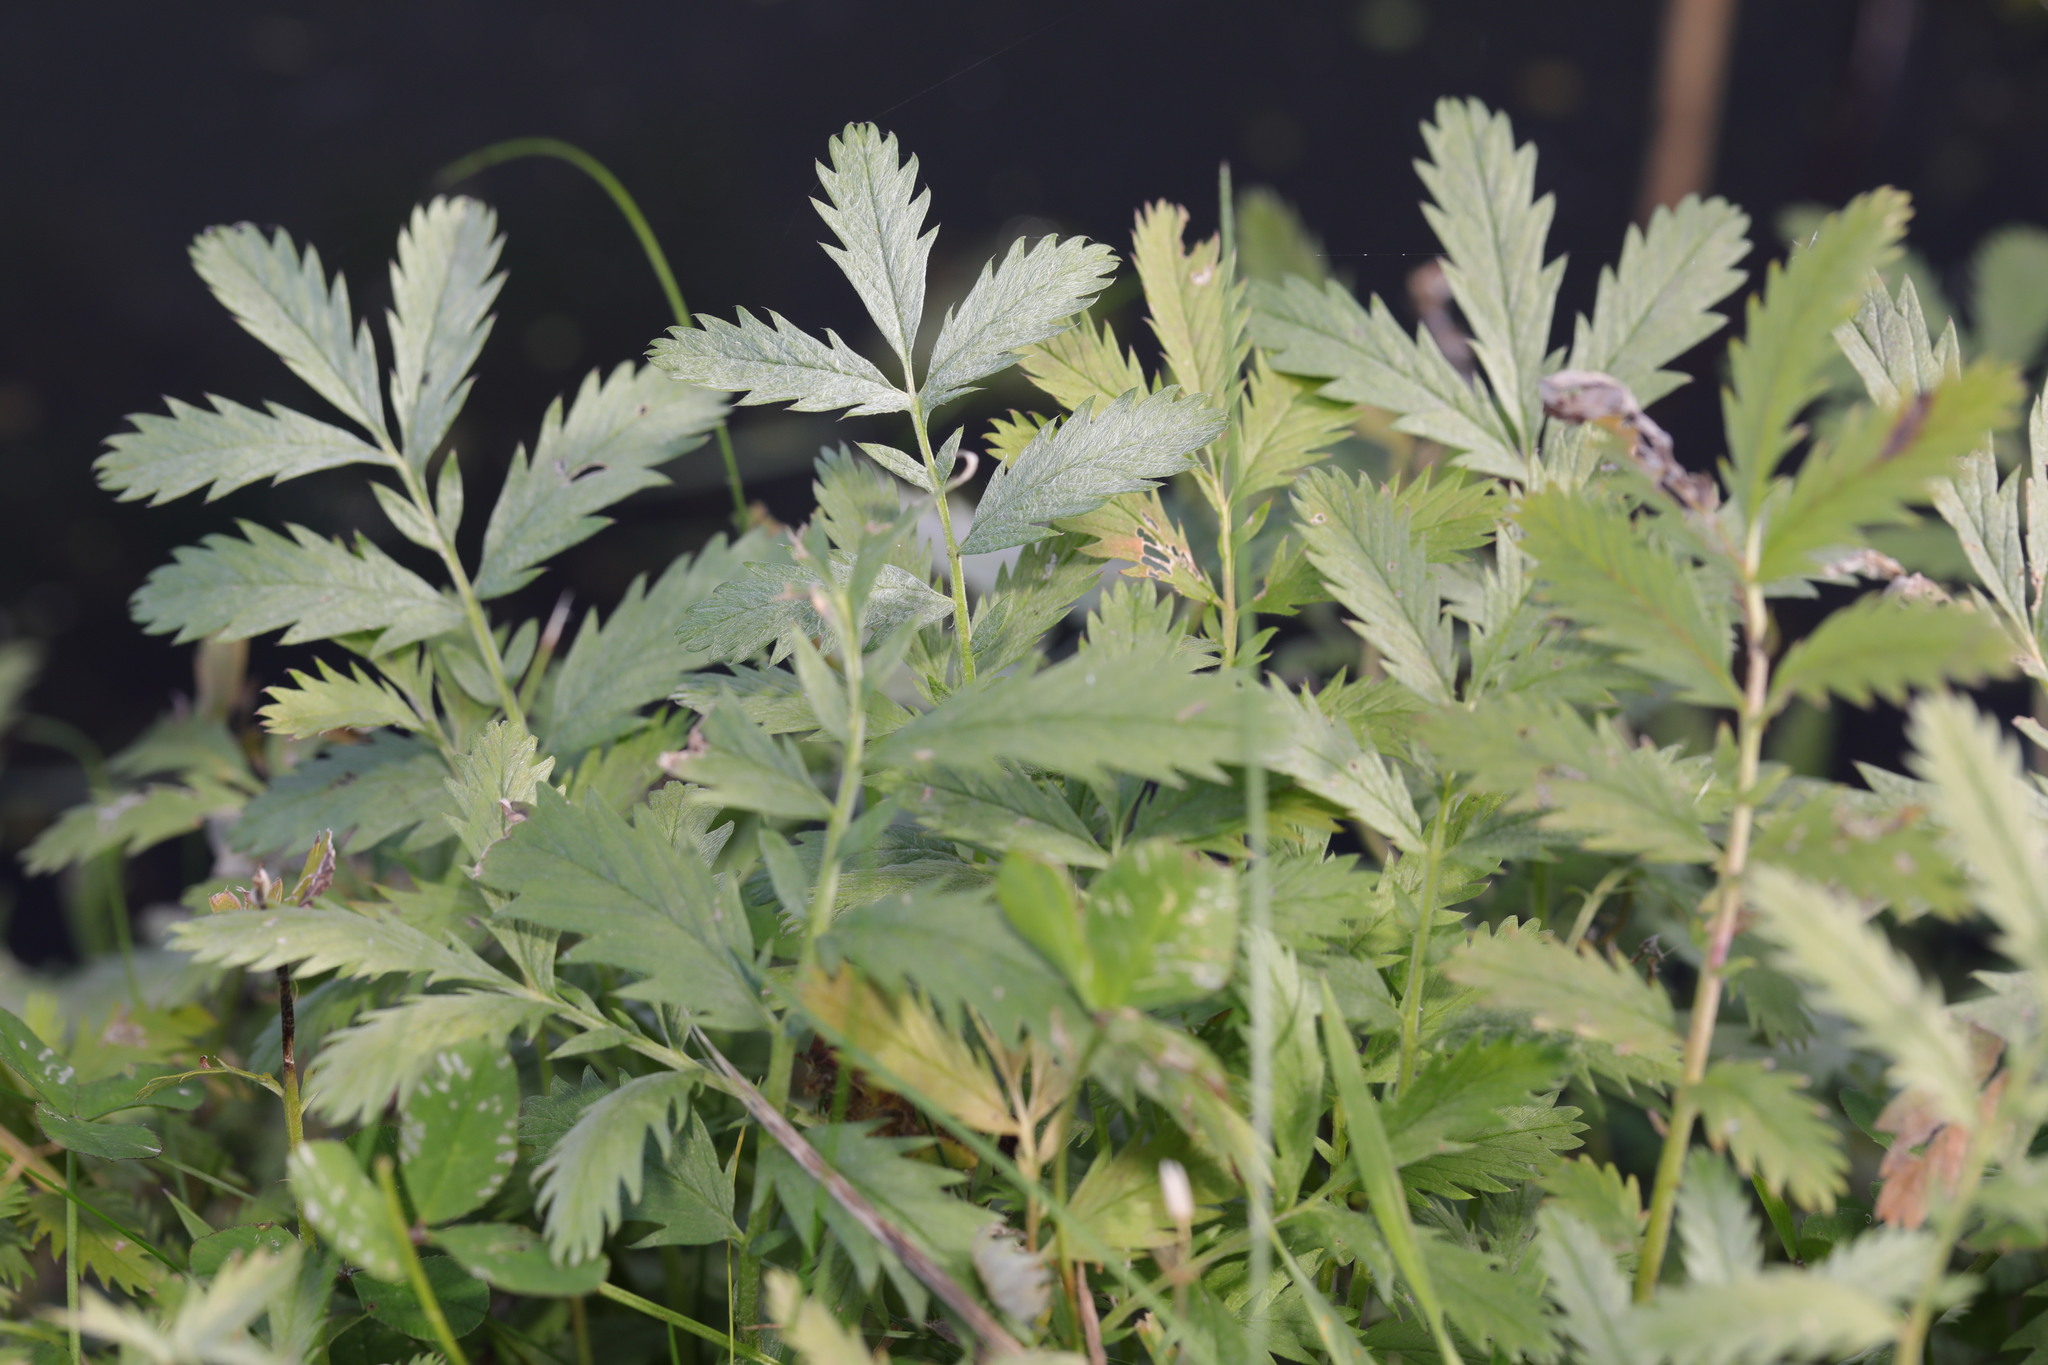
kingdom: Plantae
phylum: Tracheophyta
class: Magnoliopsida
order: Rosales
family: Rosaceae
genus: Argentina
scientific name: Argentina anserina
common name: Common silverweed
